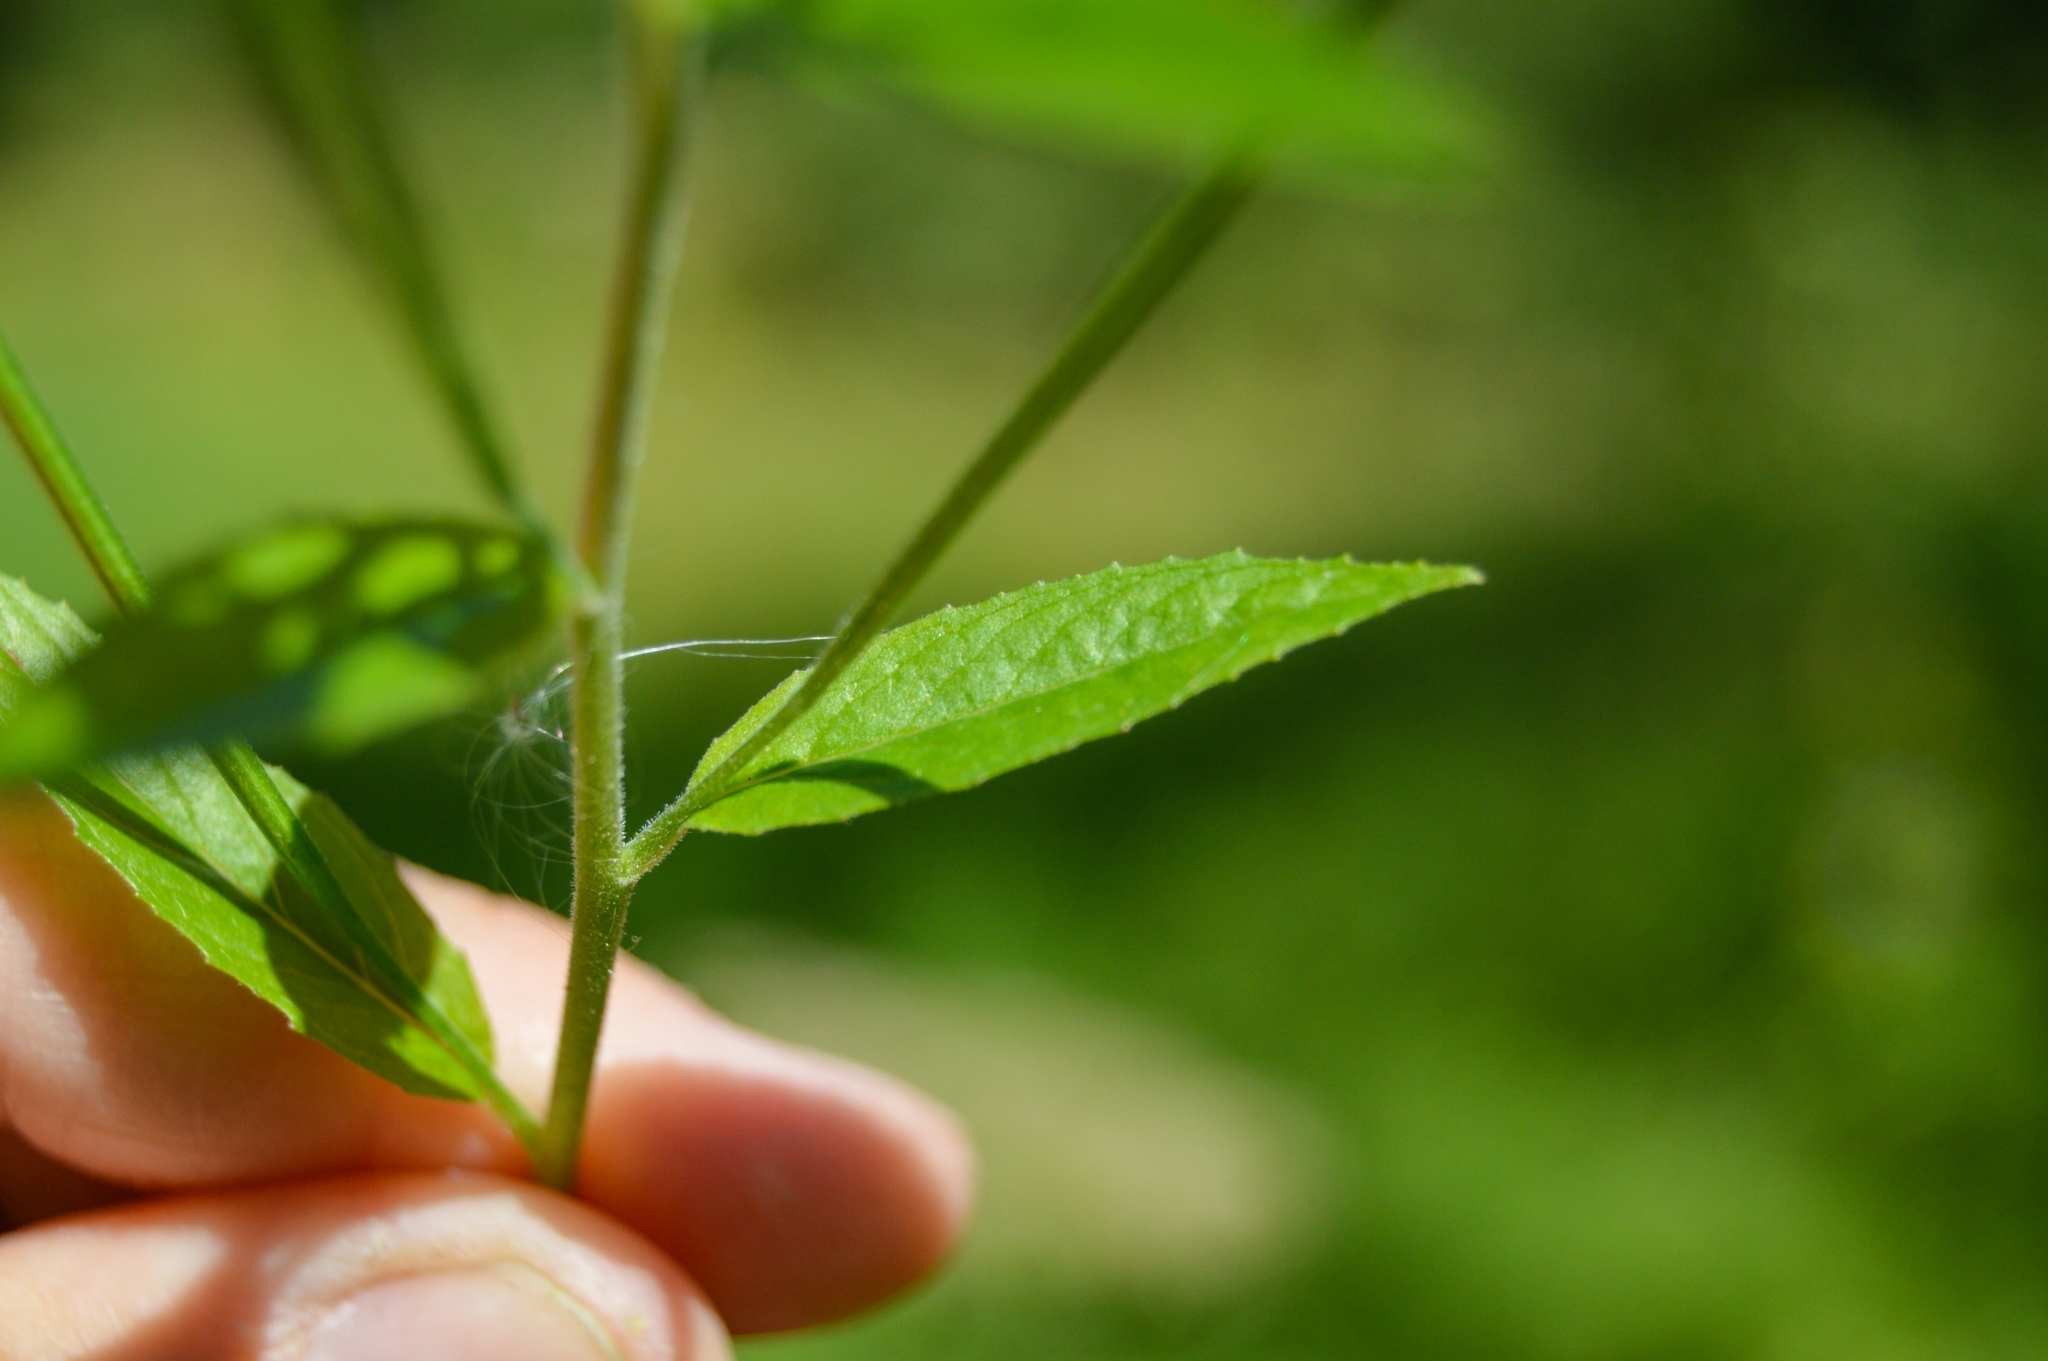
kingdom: Plantae
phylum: Tracheophyta
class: Magnoliopsida
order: Myrtales
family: Onagraceae
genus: Epilobium
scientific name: Epilobium pseudorubescens
